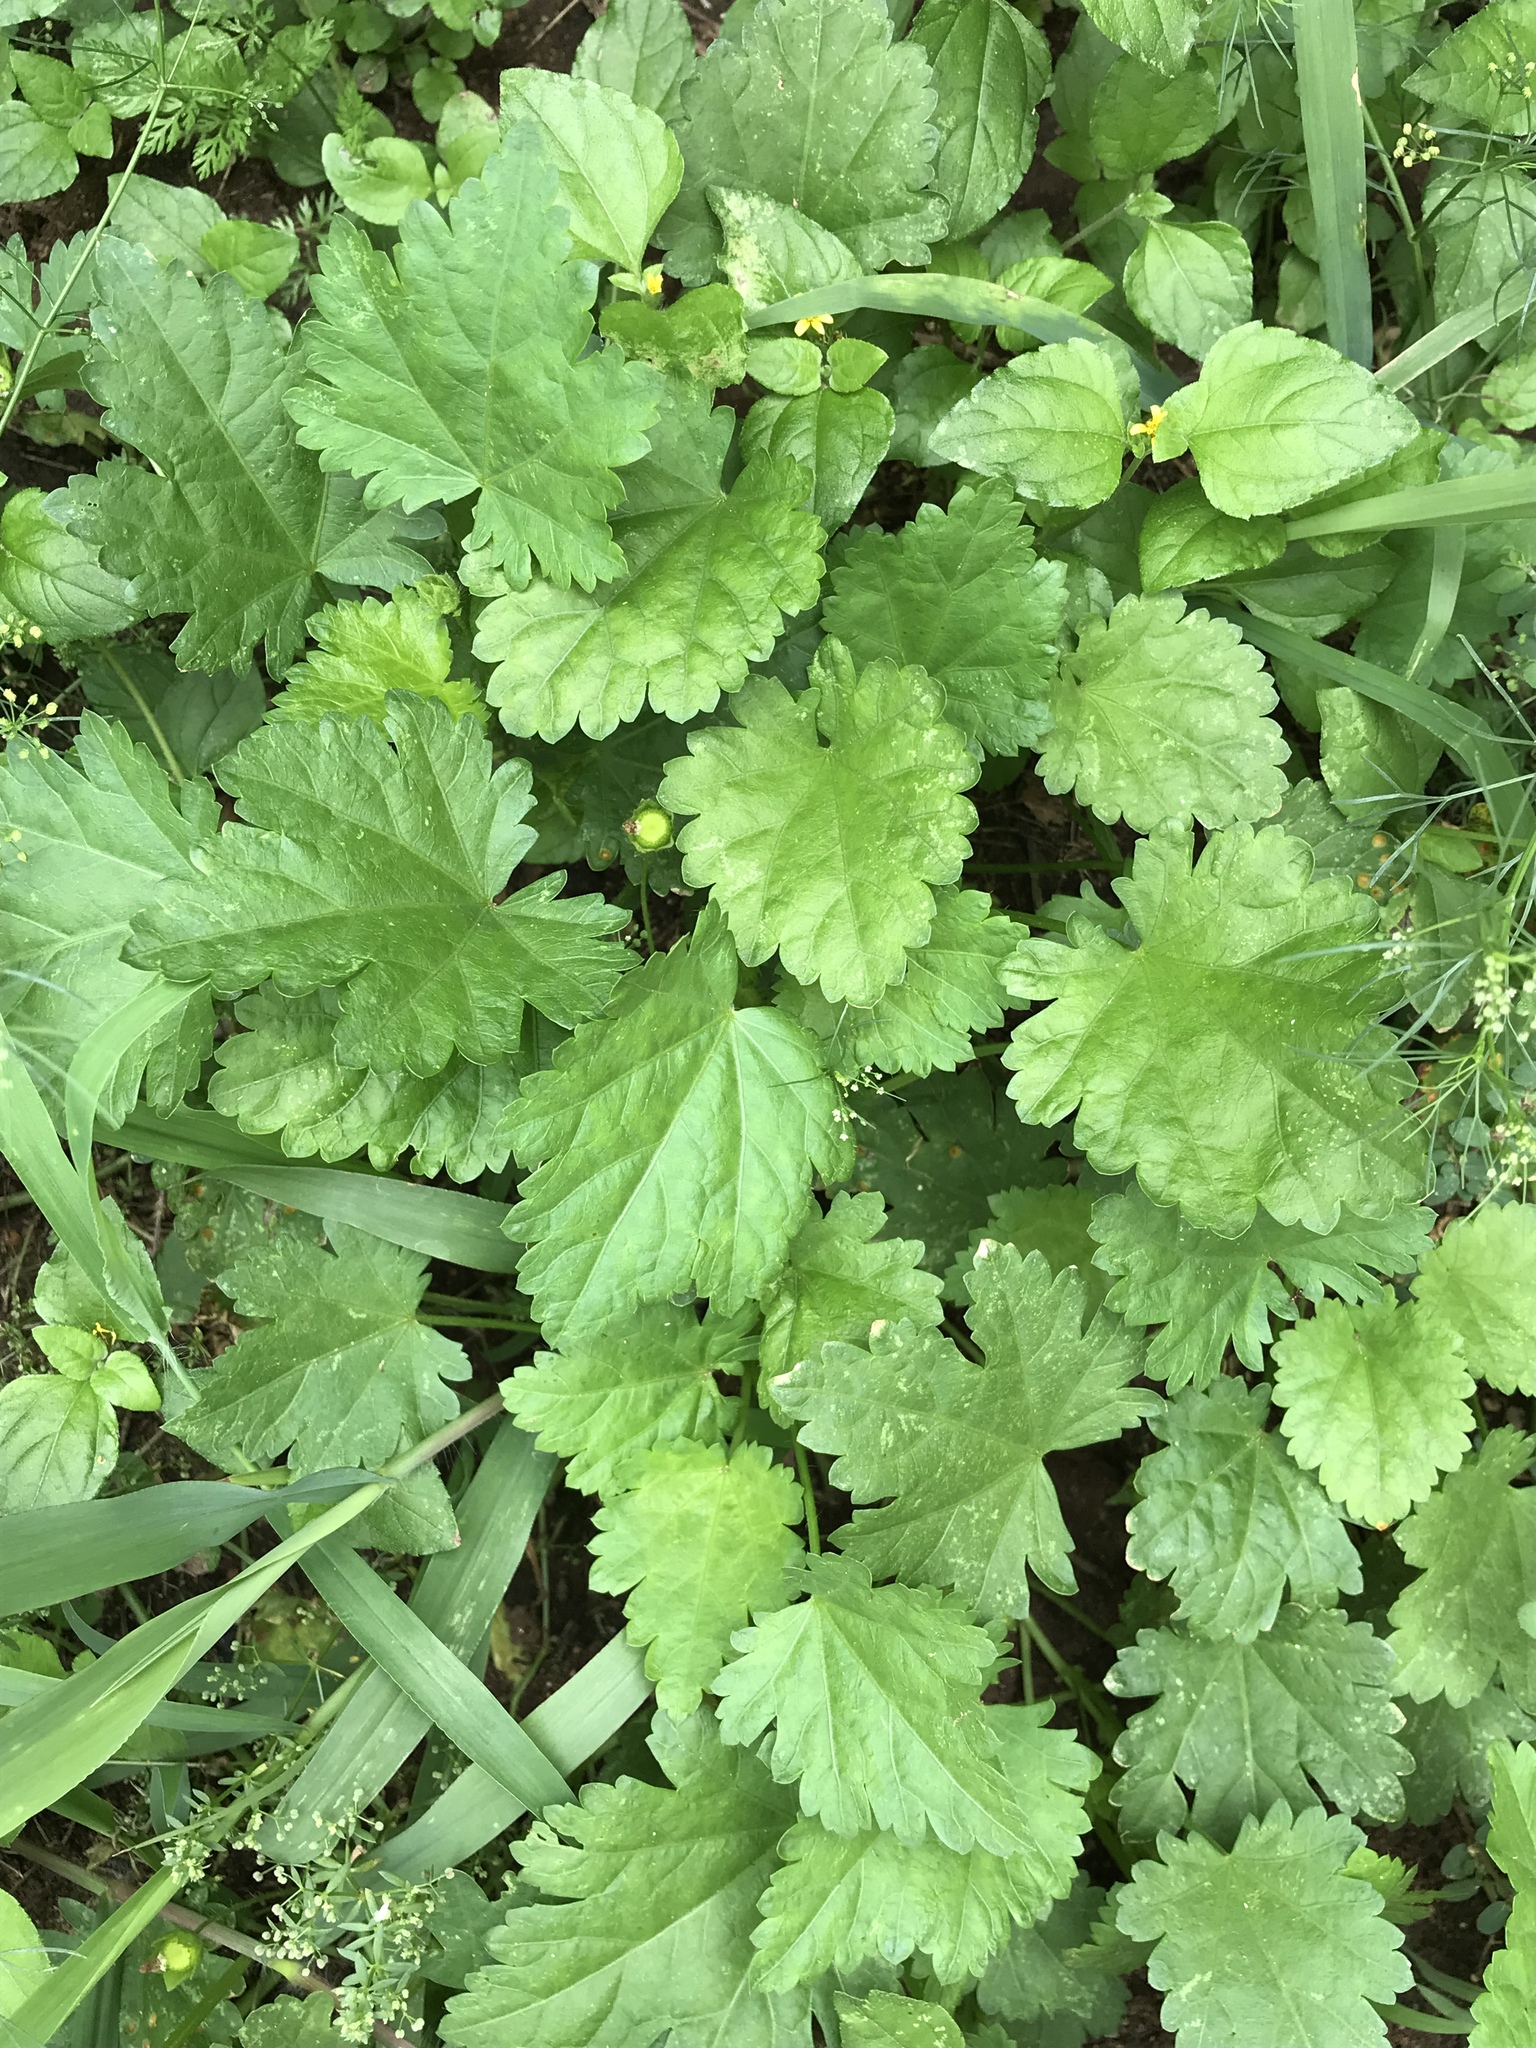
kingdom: Plantae
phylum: Tracheophyta
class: Magnoliopsida
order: Malvales
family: Malvaceae
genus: Modiola
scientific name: Modiola caroliniana
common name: Carolina bristlemallow
